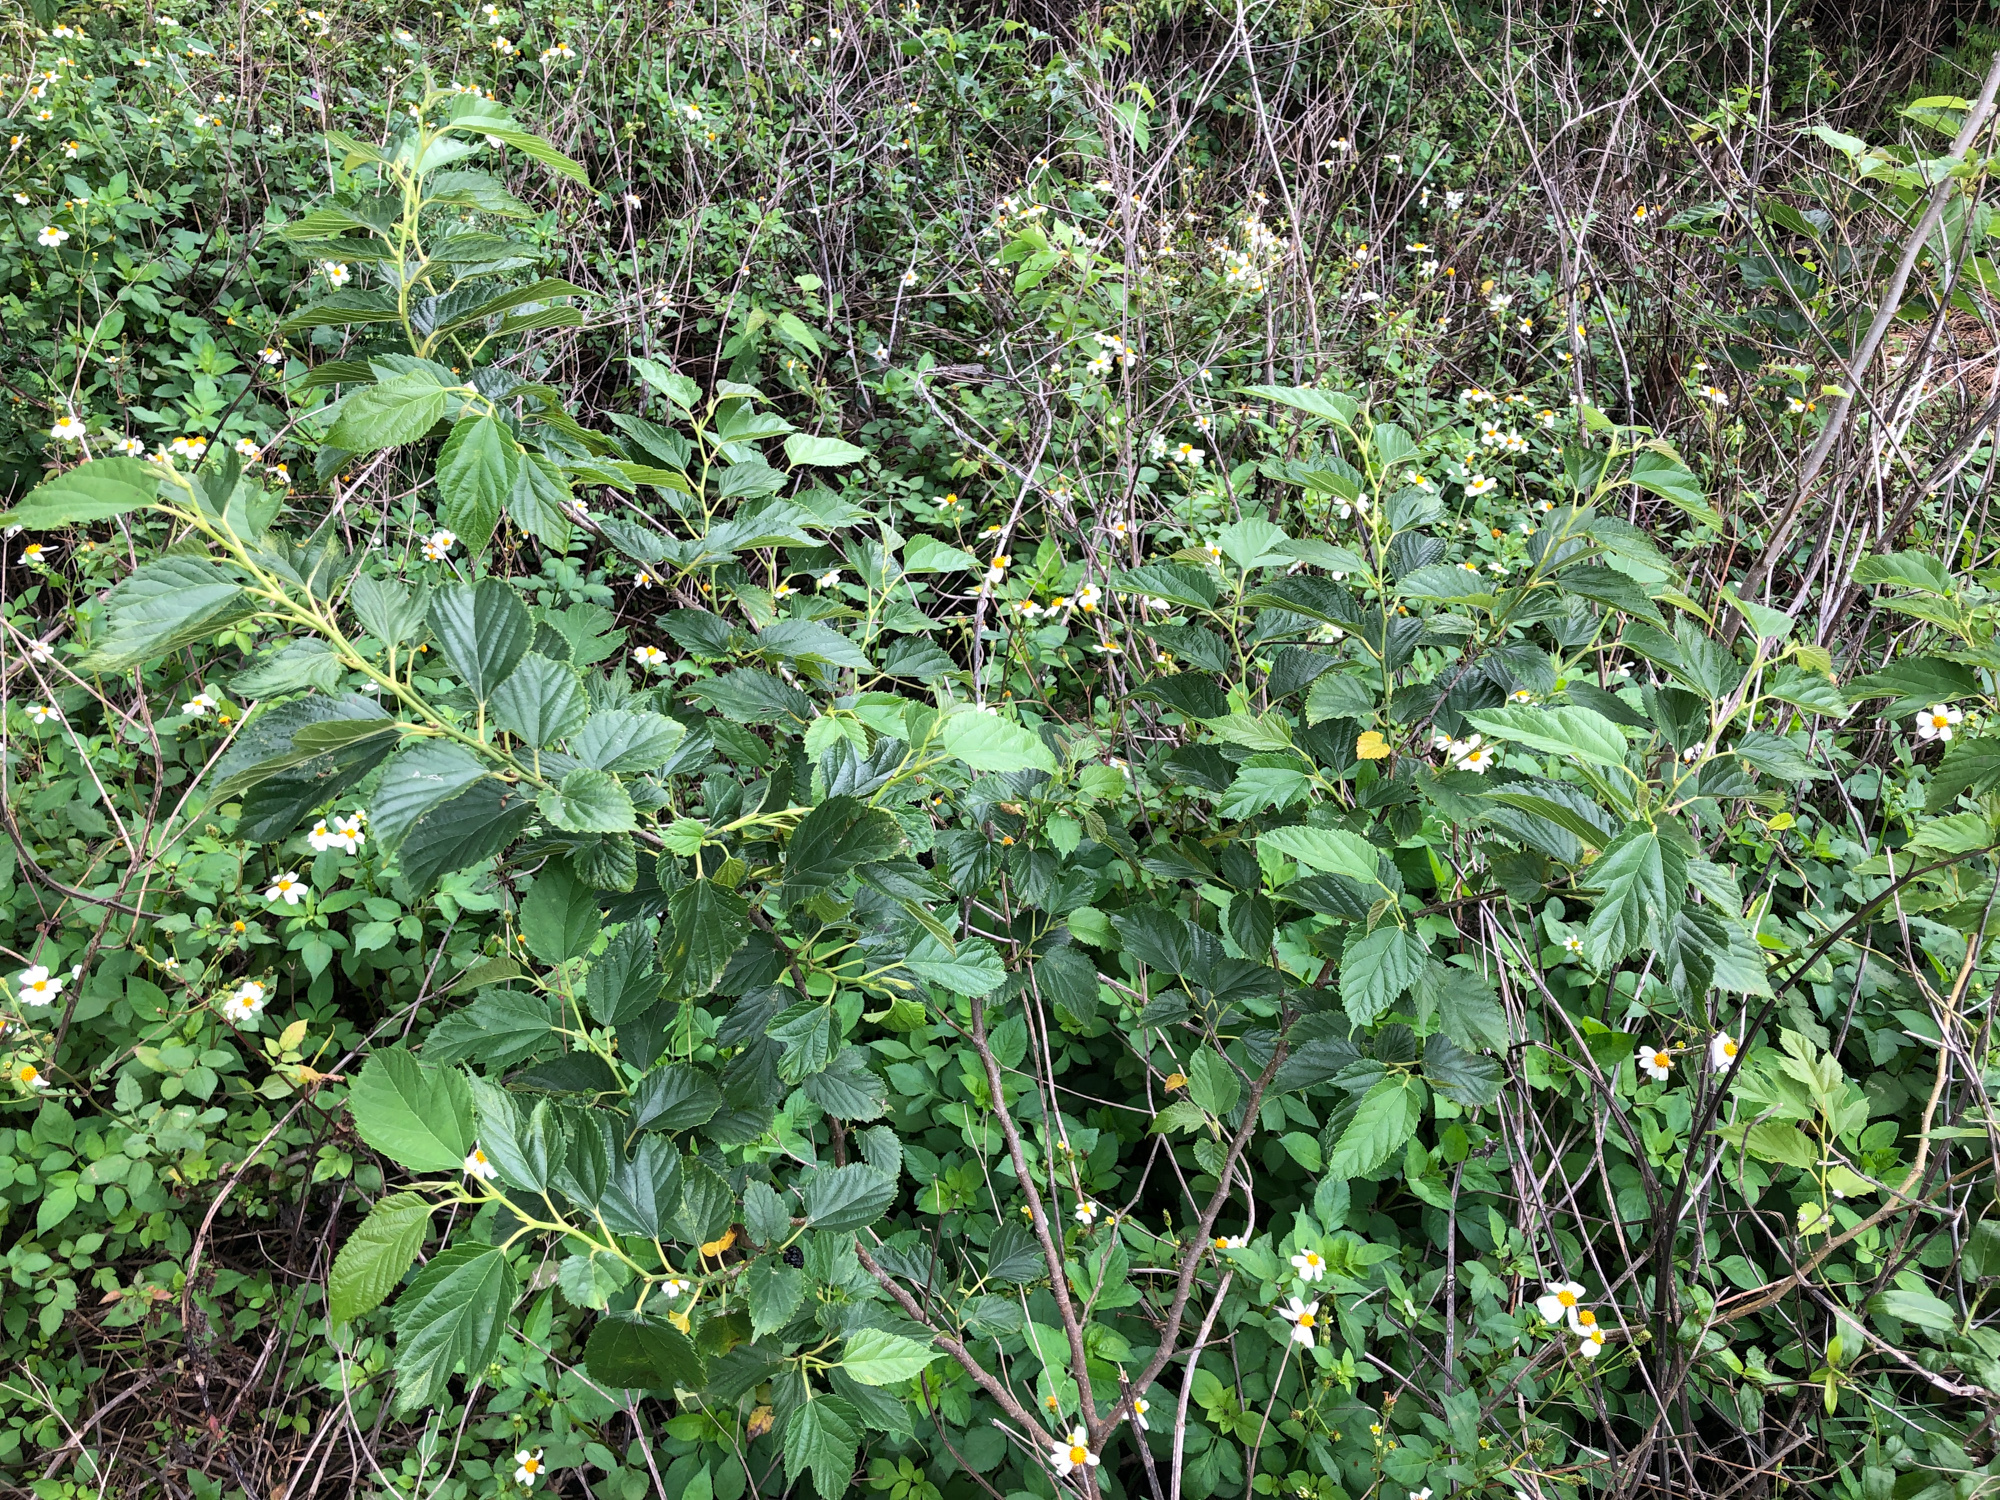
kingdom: Plantae
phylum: Tracheophyta
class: Magnoliopsida
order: Rosales
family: Moraceae
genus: Morus
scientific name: Morus indica
